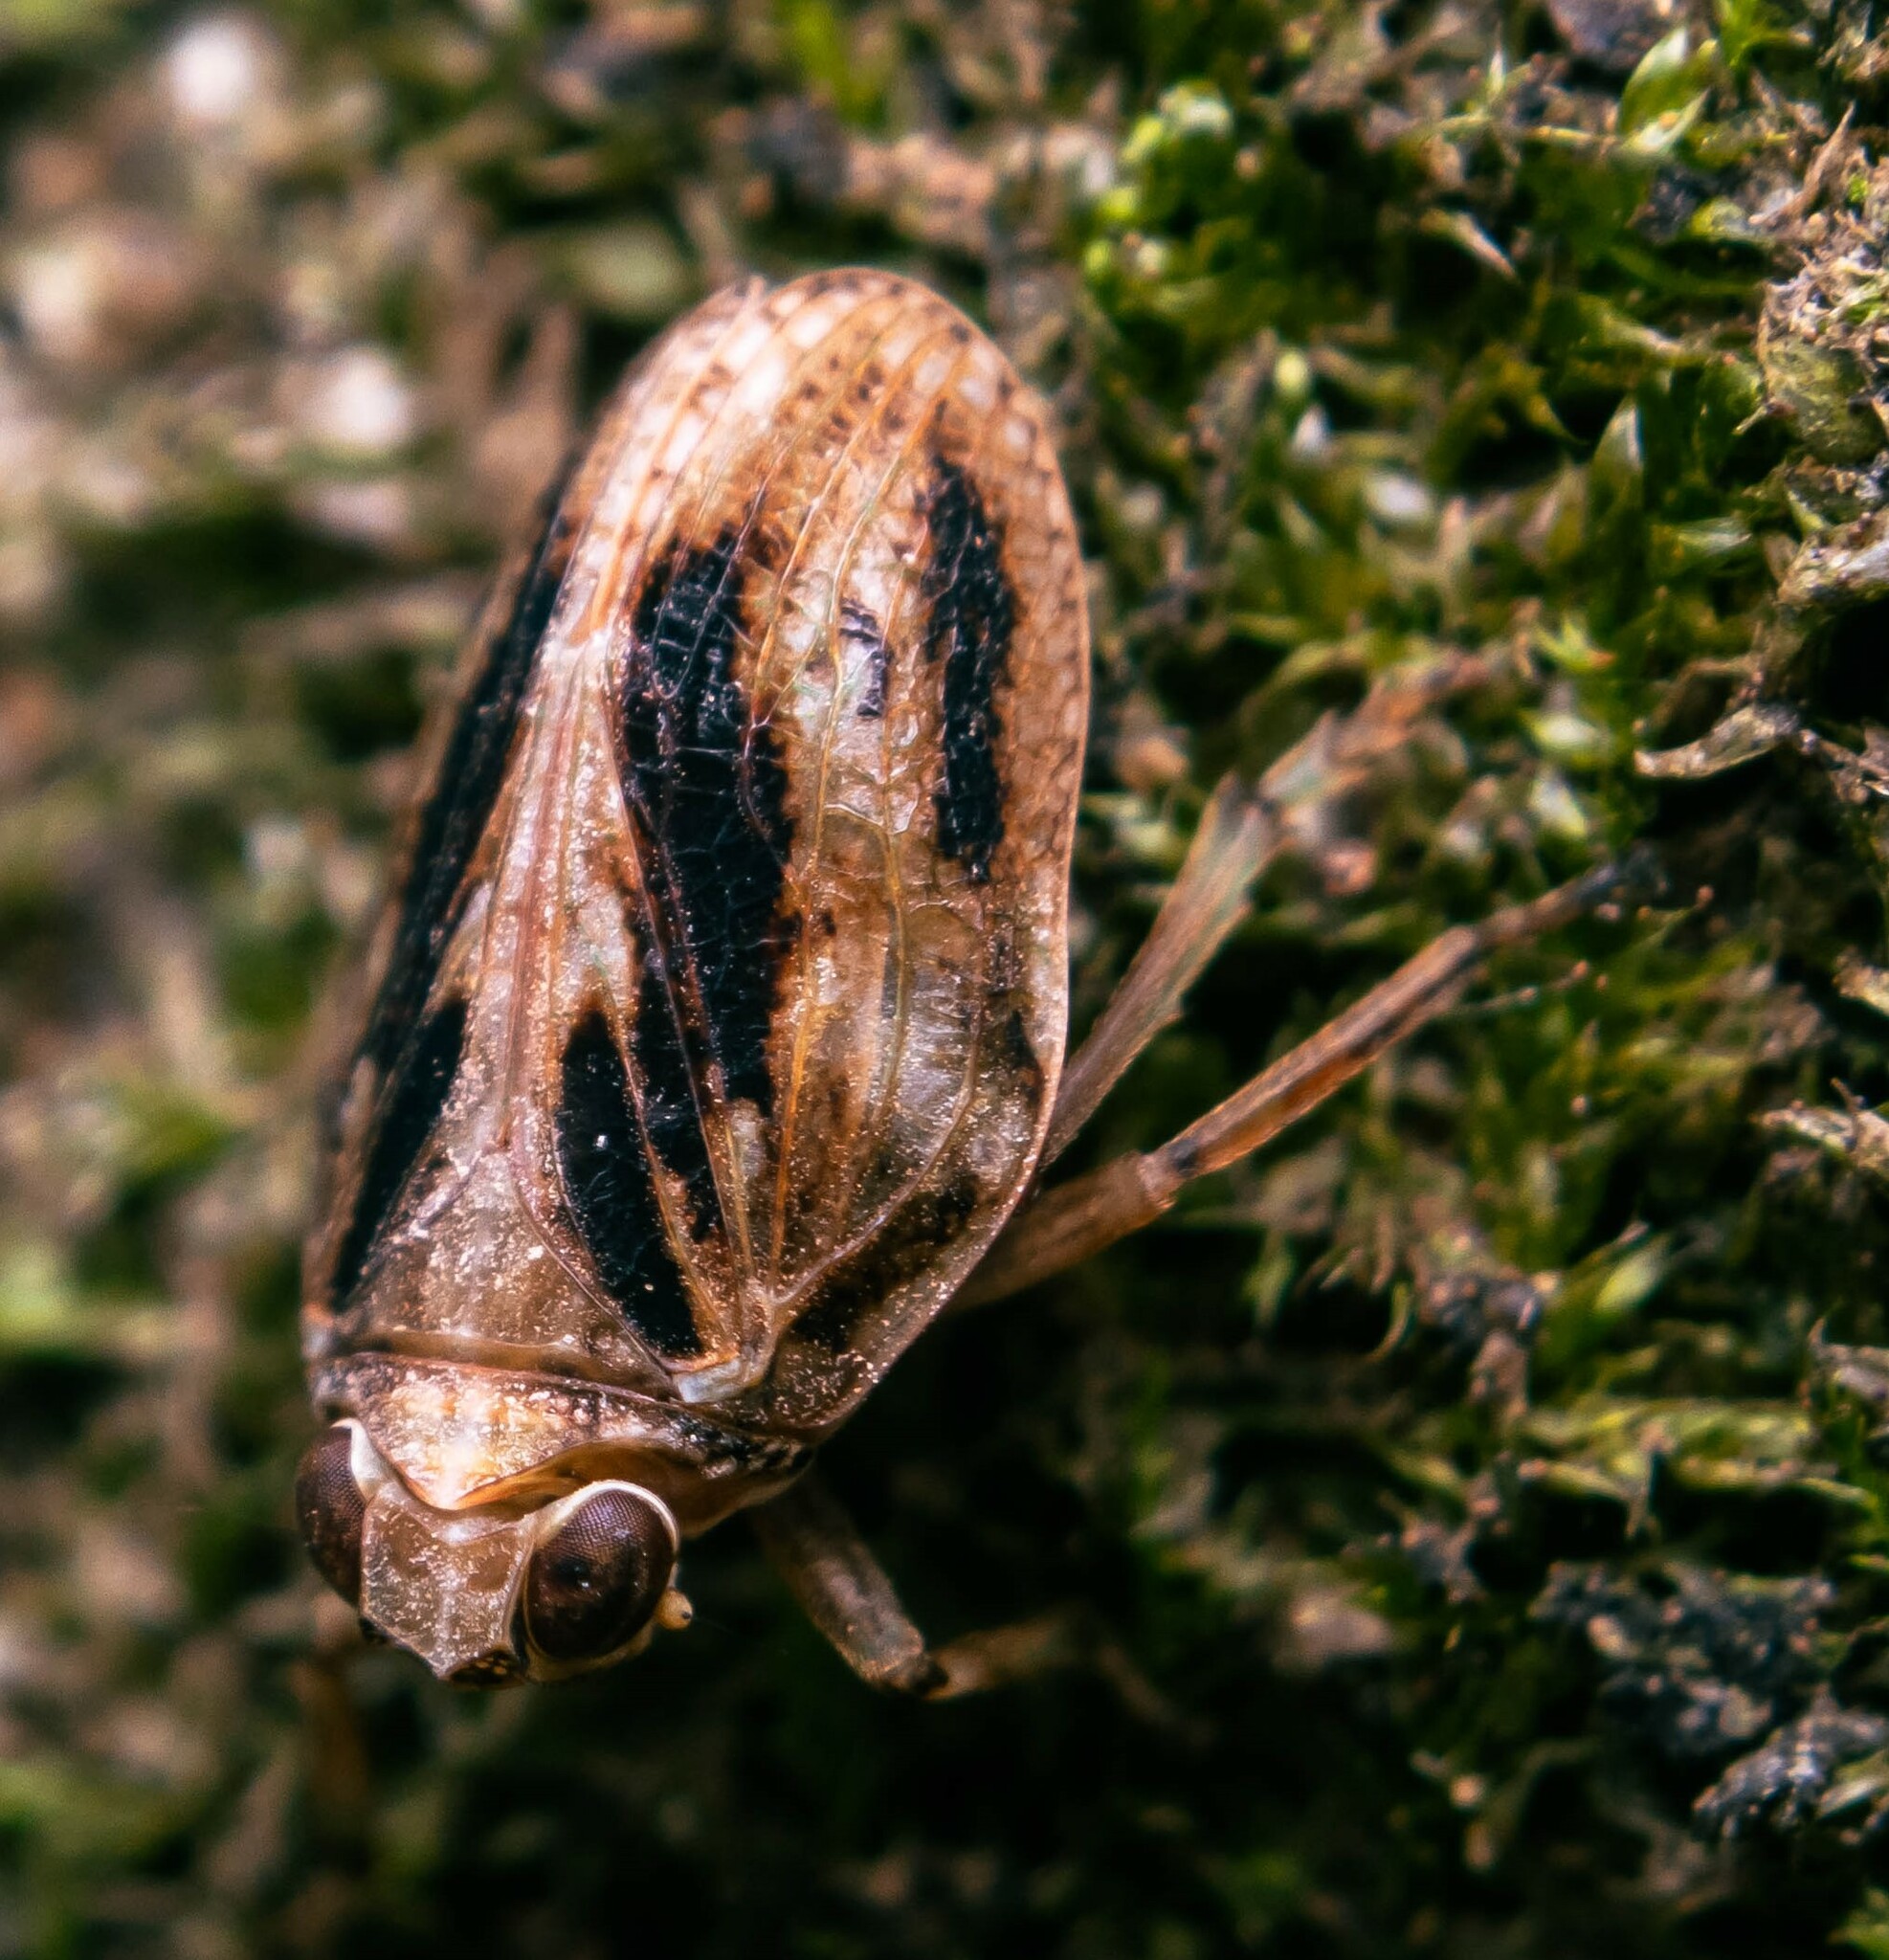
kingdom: Animalia
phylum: Arthropoda
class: Insecta
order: Hemiptera
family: Issidae
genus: Issus
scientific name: Issus coleoptratus
